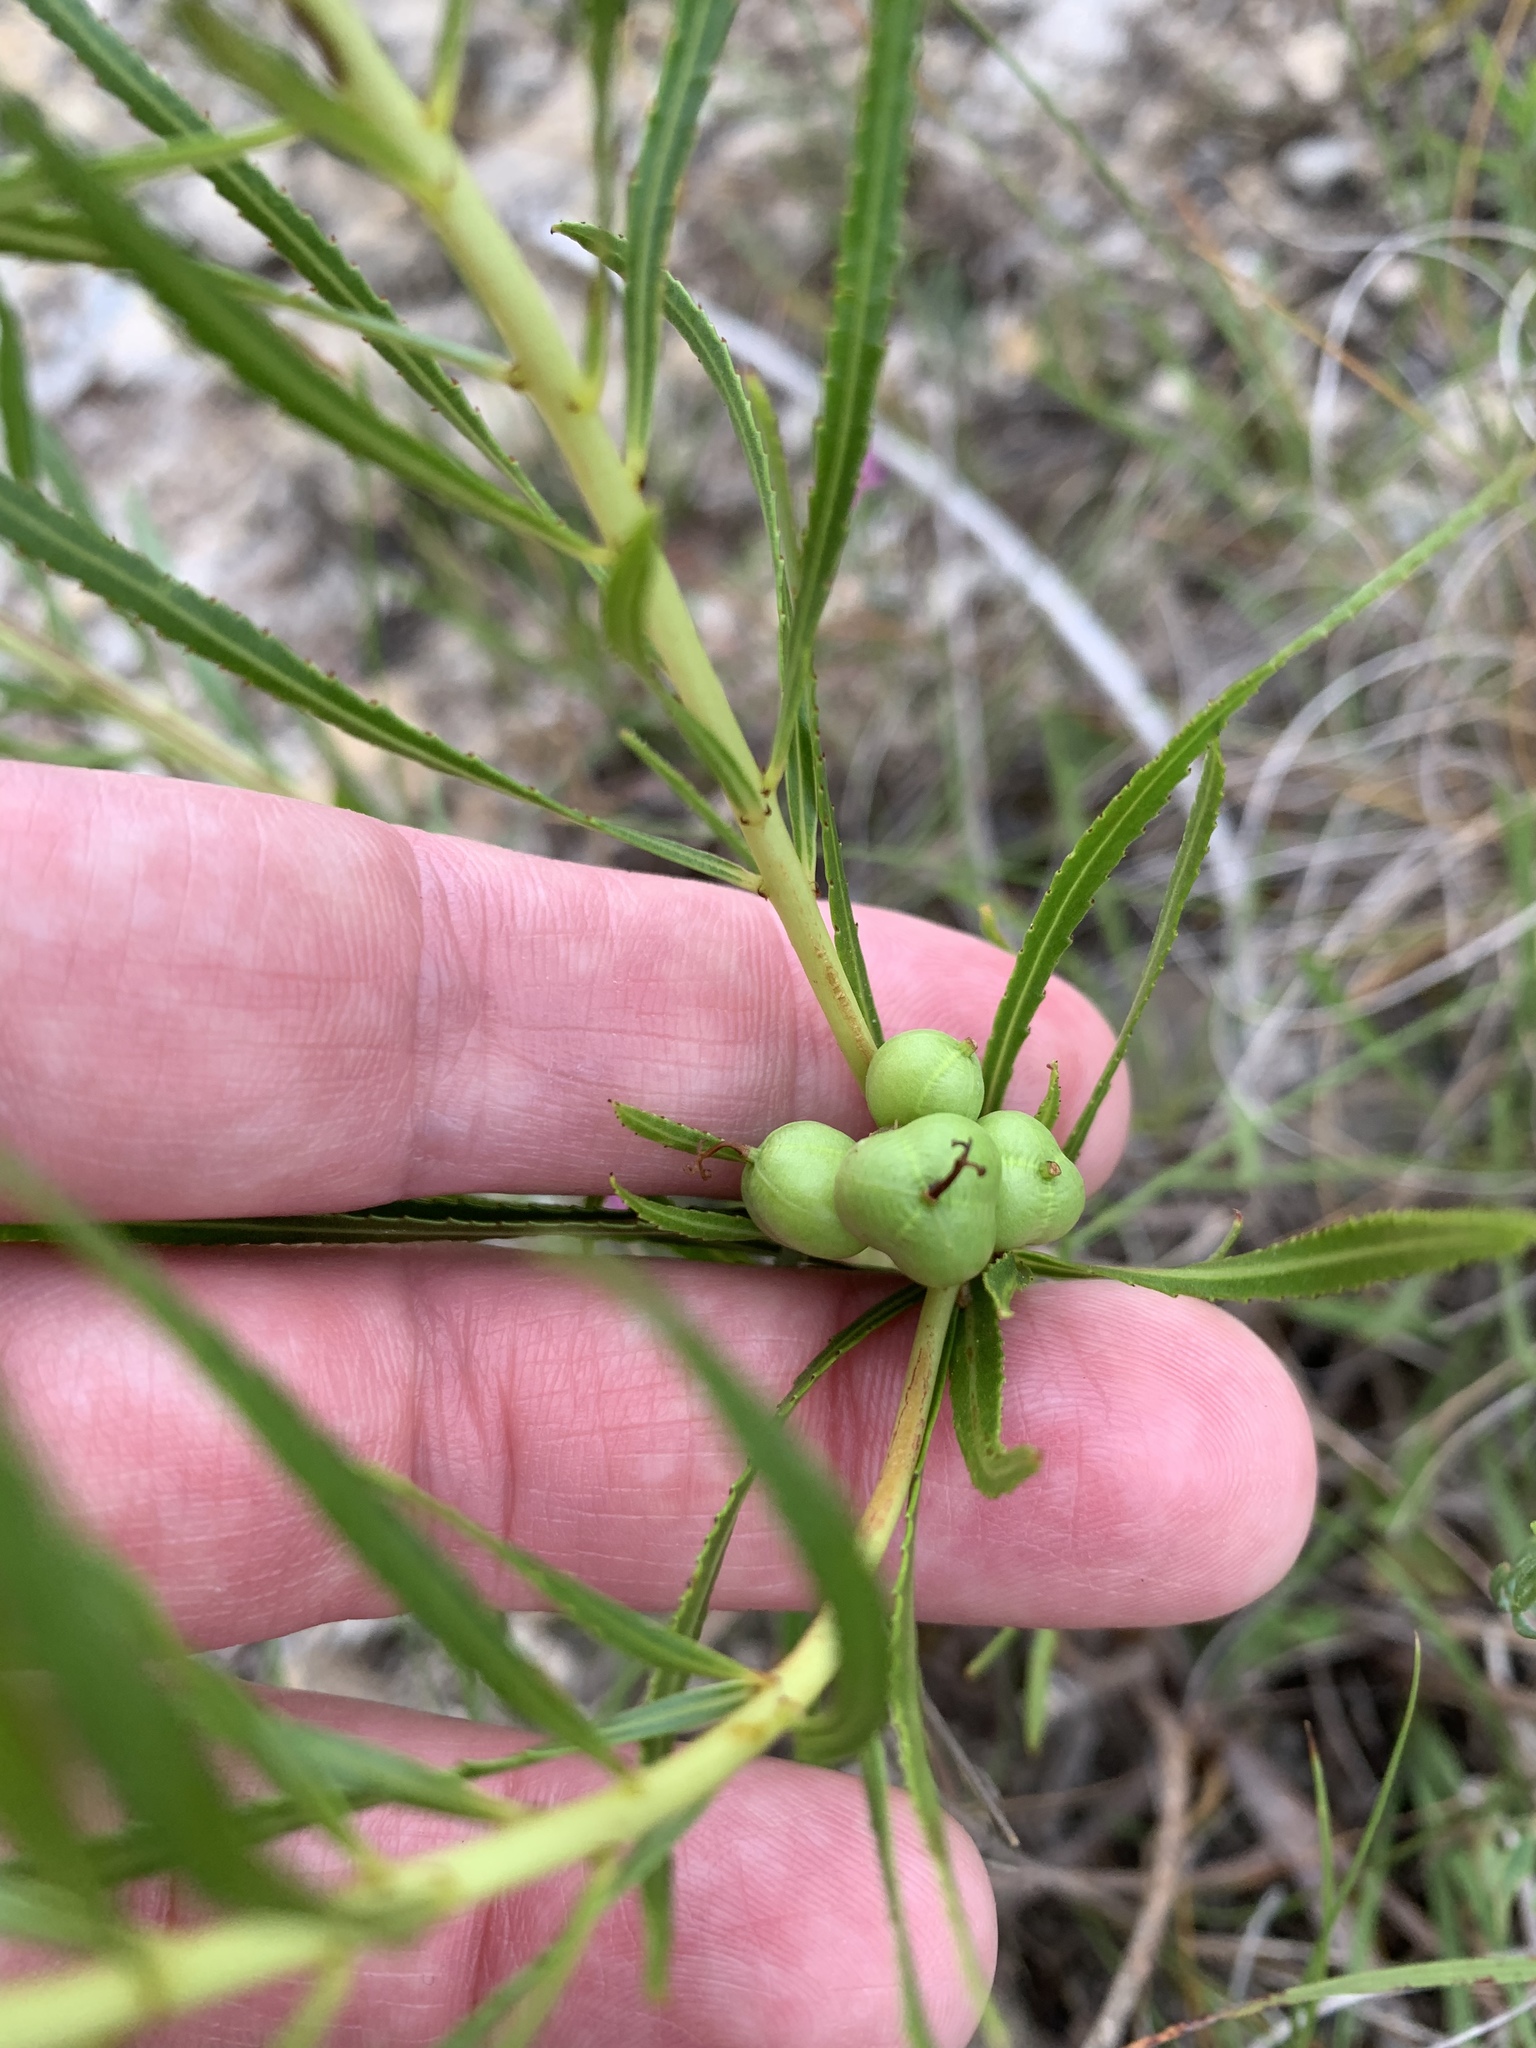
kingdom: Plantae
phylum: Tracheophyta
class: Magnoliopsida
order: Malpighiales
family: Euphorbiaceae
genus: Stillingia
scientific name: Stillingia texana
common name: Texas stillingia
